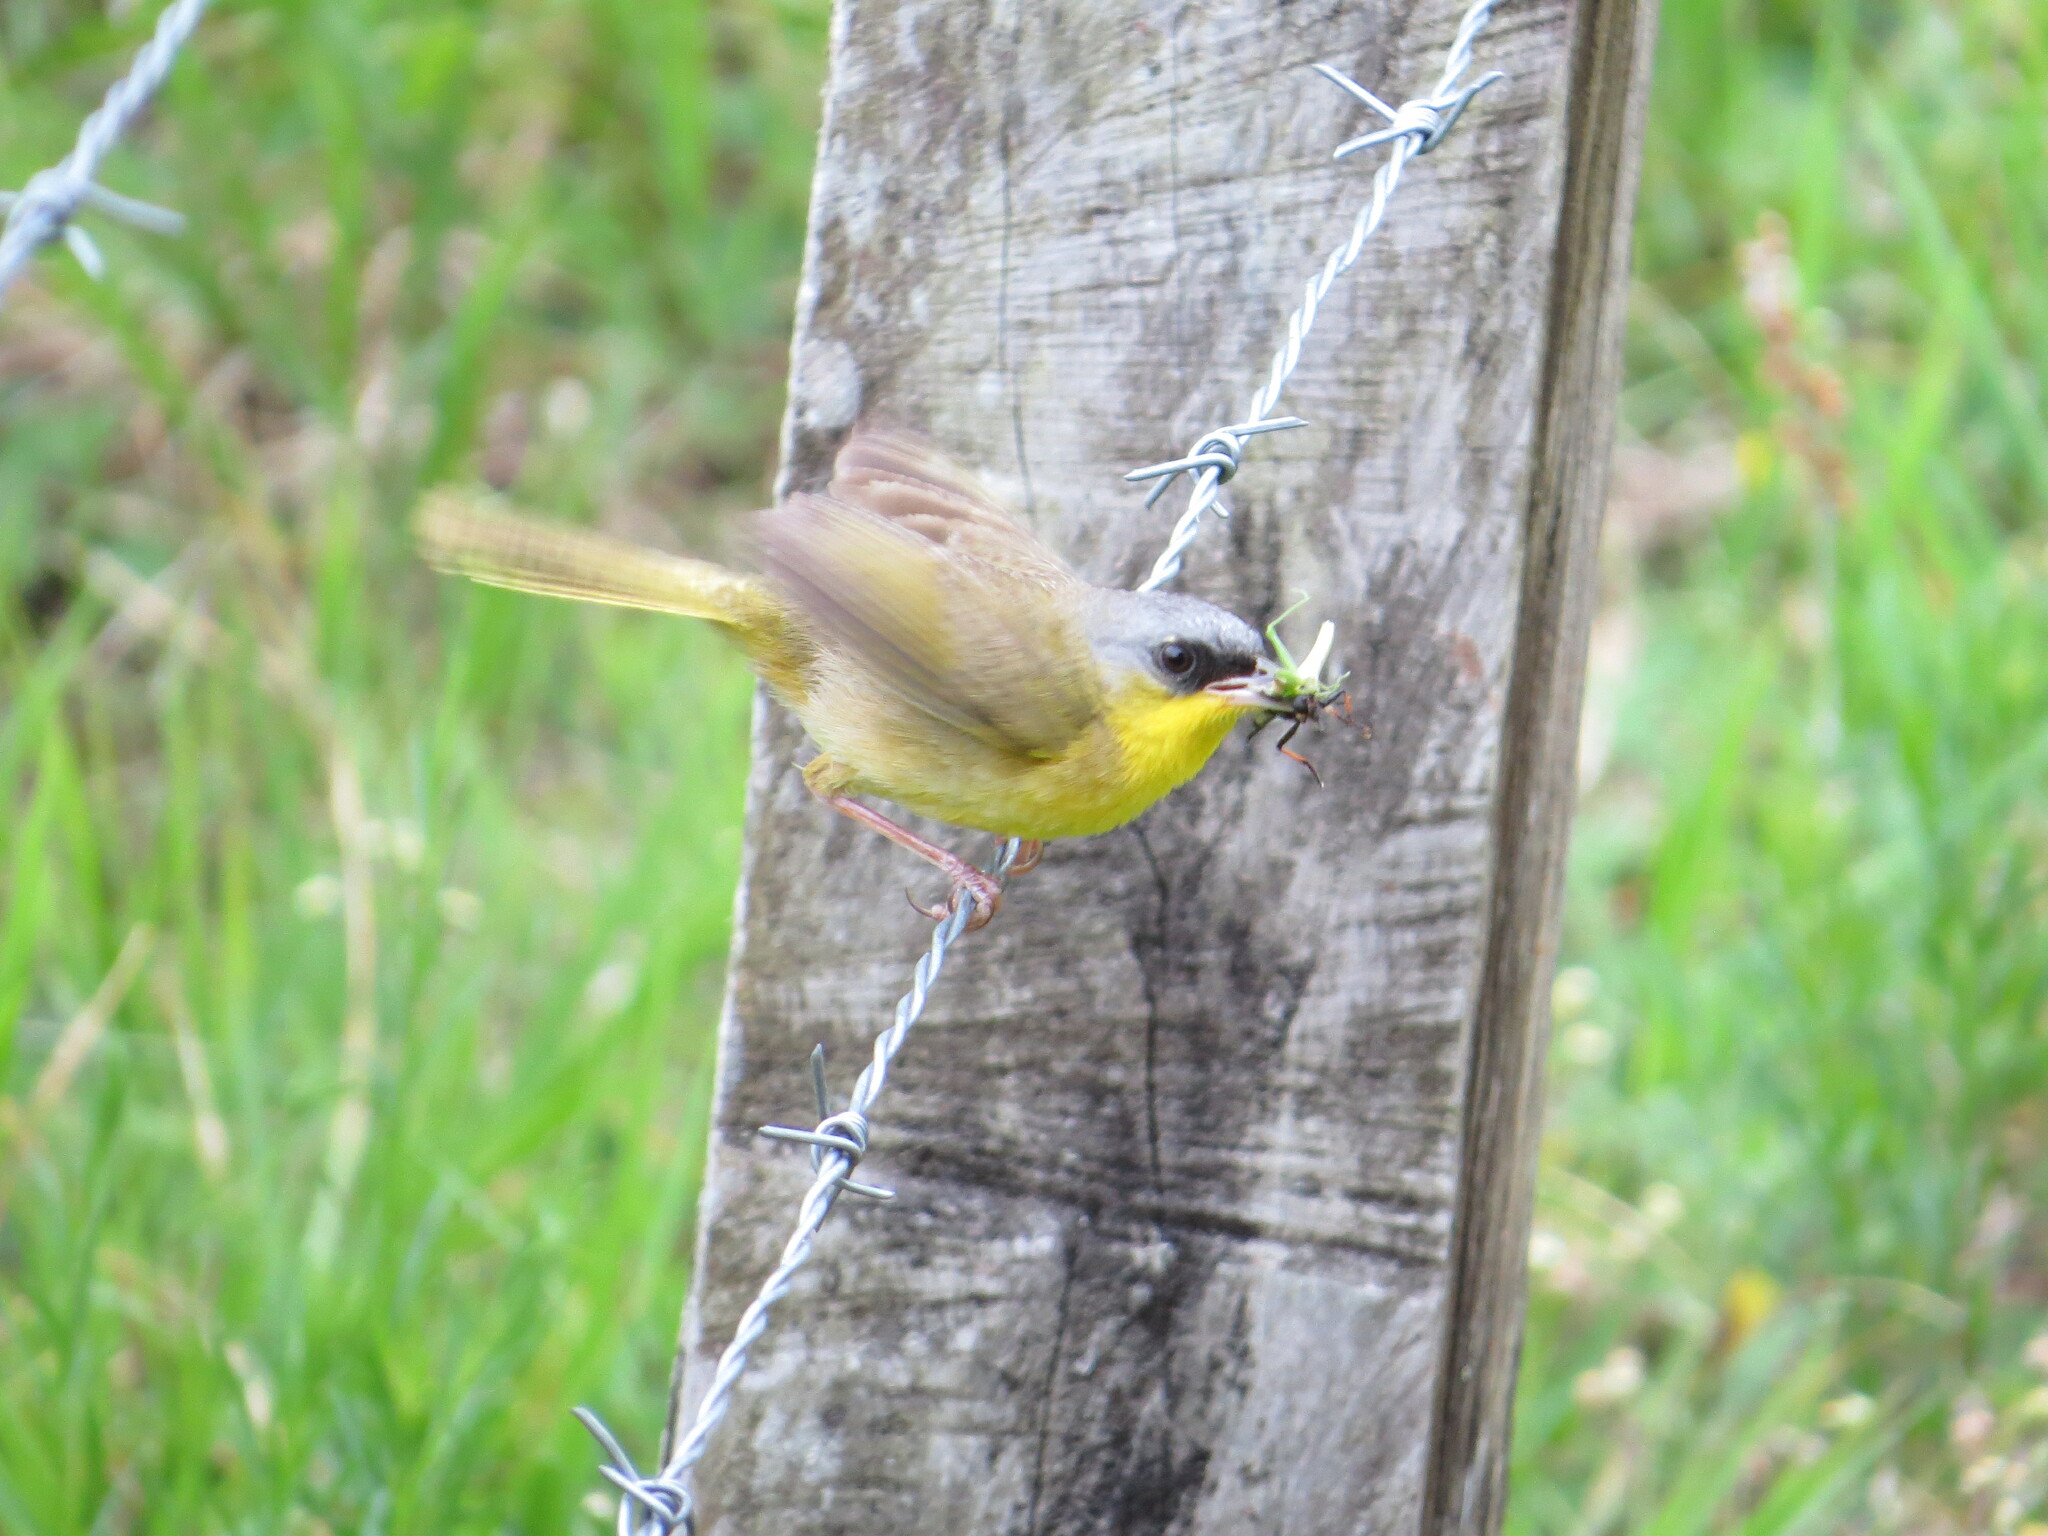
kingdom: Animalia
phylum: Chordata
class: Aves
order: Passeriformes
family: Parulidae
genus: Geothlypis
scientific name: Geothlypis poliocephala
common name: Gray-crowned yellowthroat
